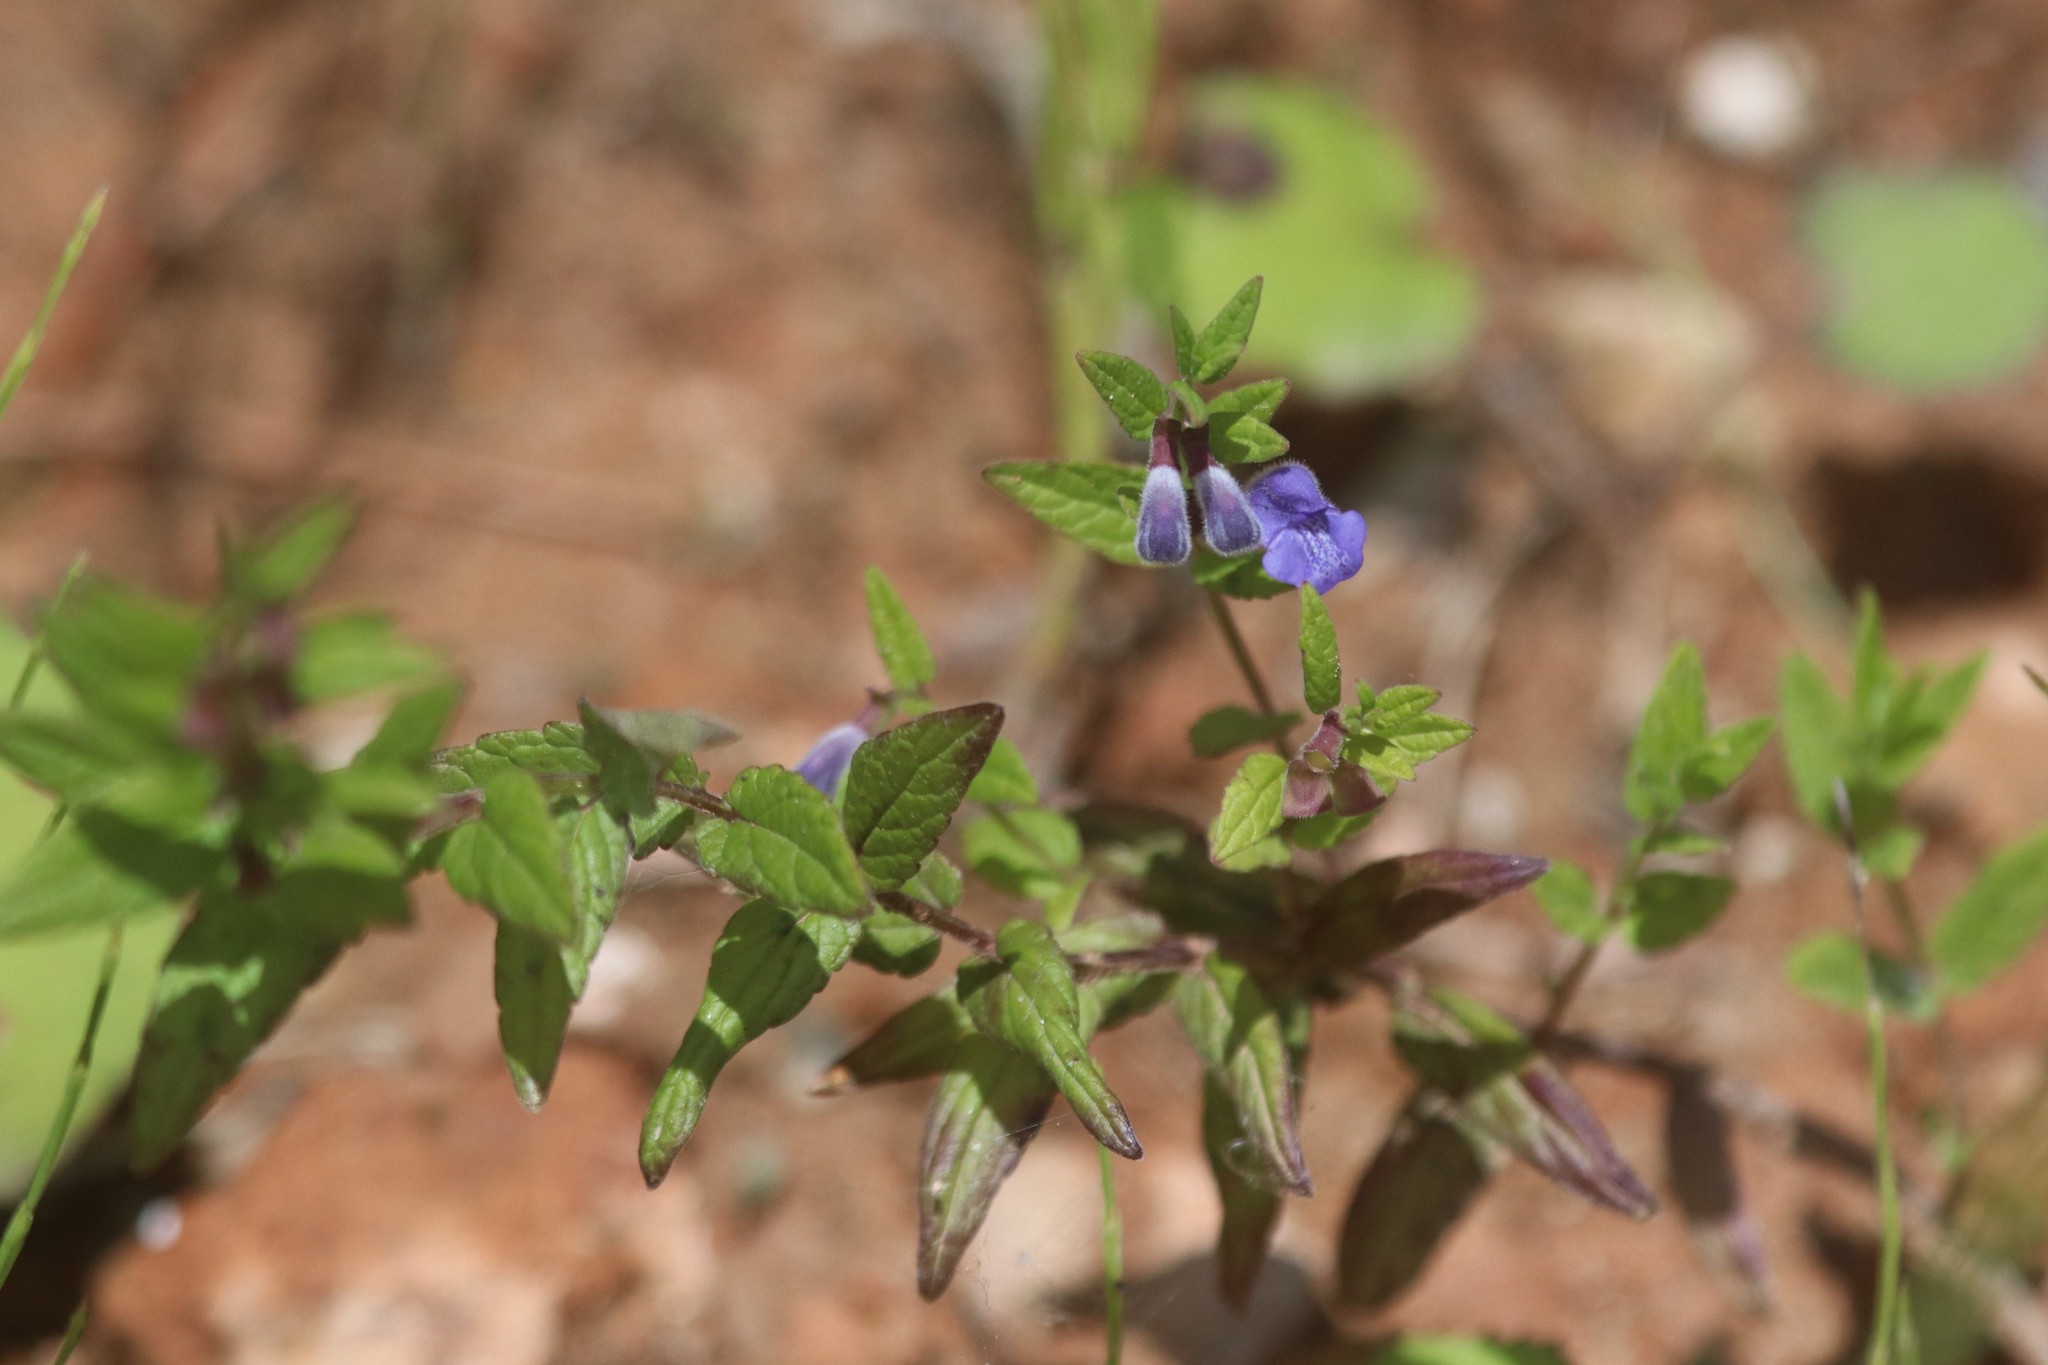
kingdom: Plantae
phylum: Tracheophyta
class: Magnoliopsida
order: Lamiales
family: Lamiaceae
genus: Scutellaria
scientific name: Scutellaria galericulata
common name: Skullcap
